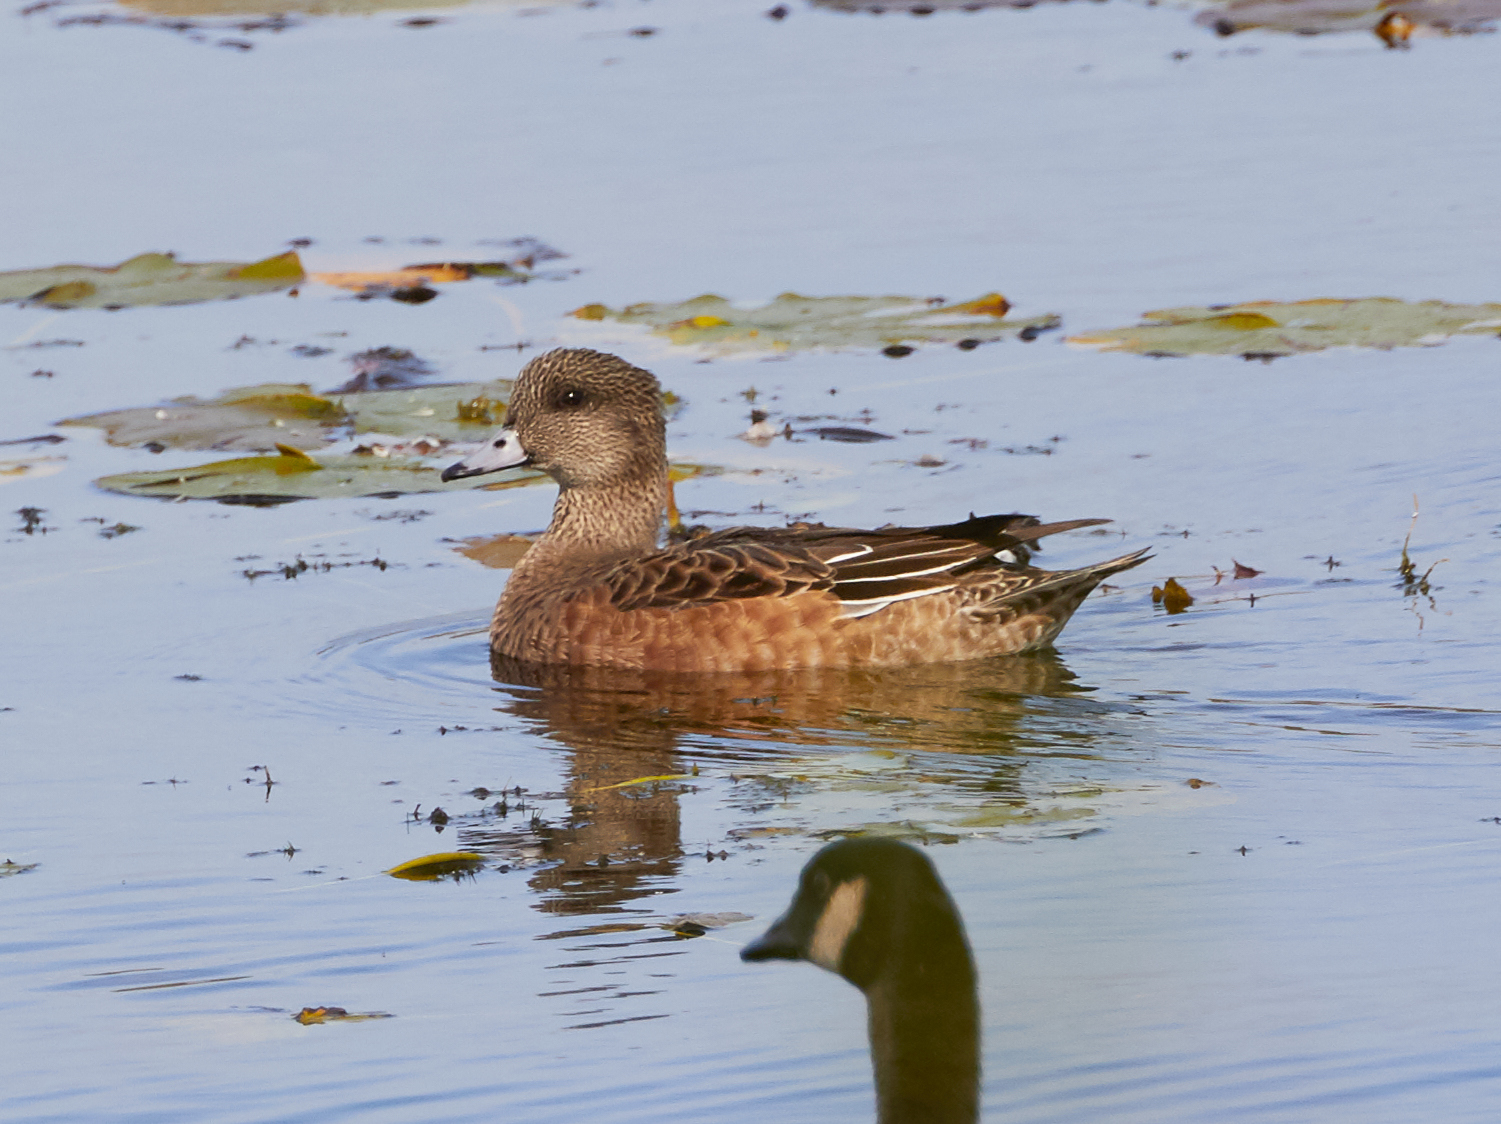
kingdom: Animalia
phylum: Chordata
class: Aves
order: Anseriformes
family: Anatidae
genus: Mareca
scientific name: Mareca americana
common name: American wigeon
